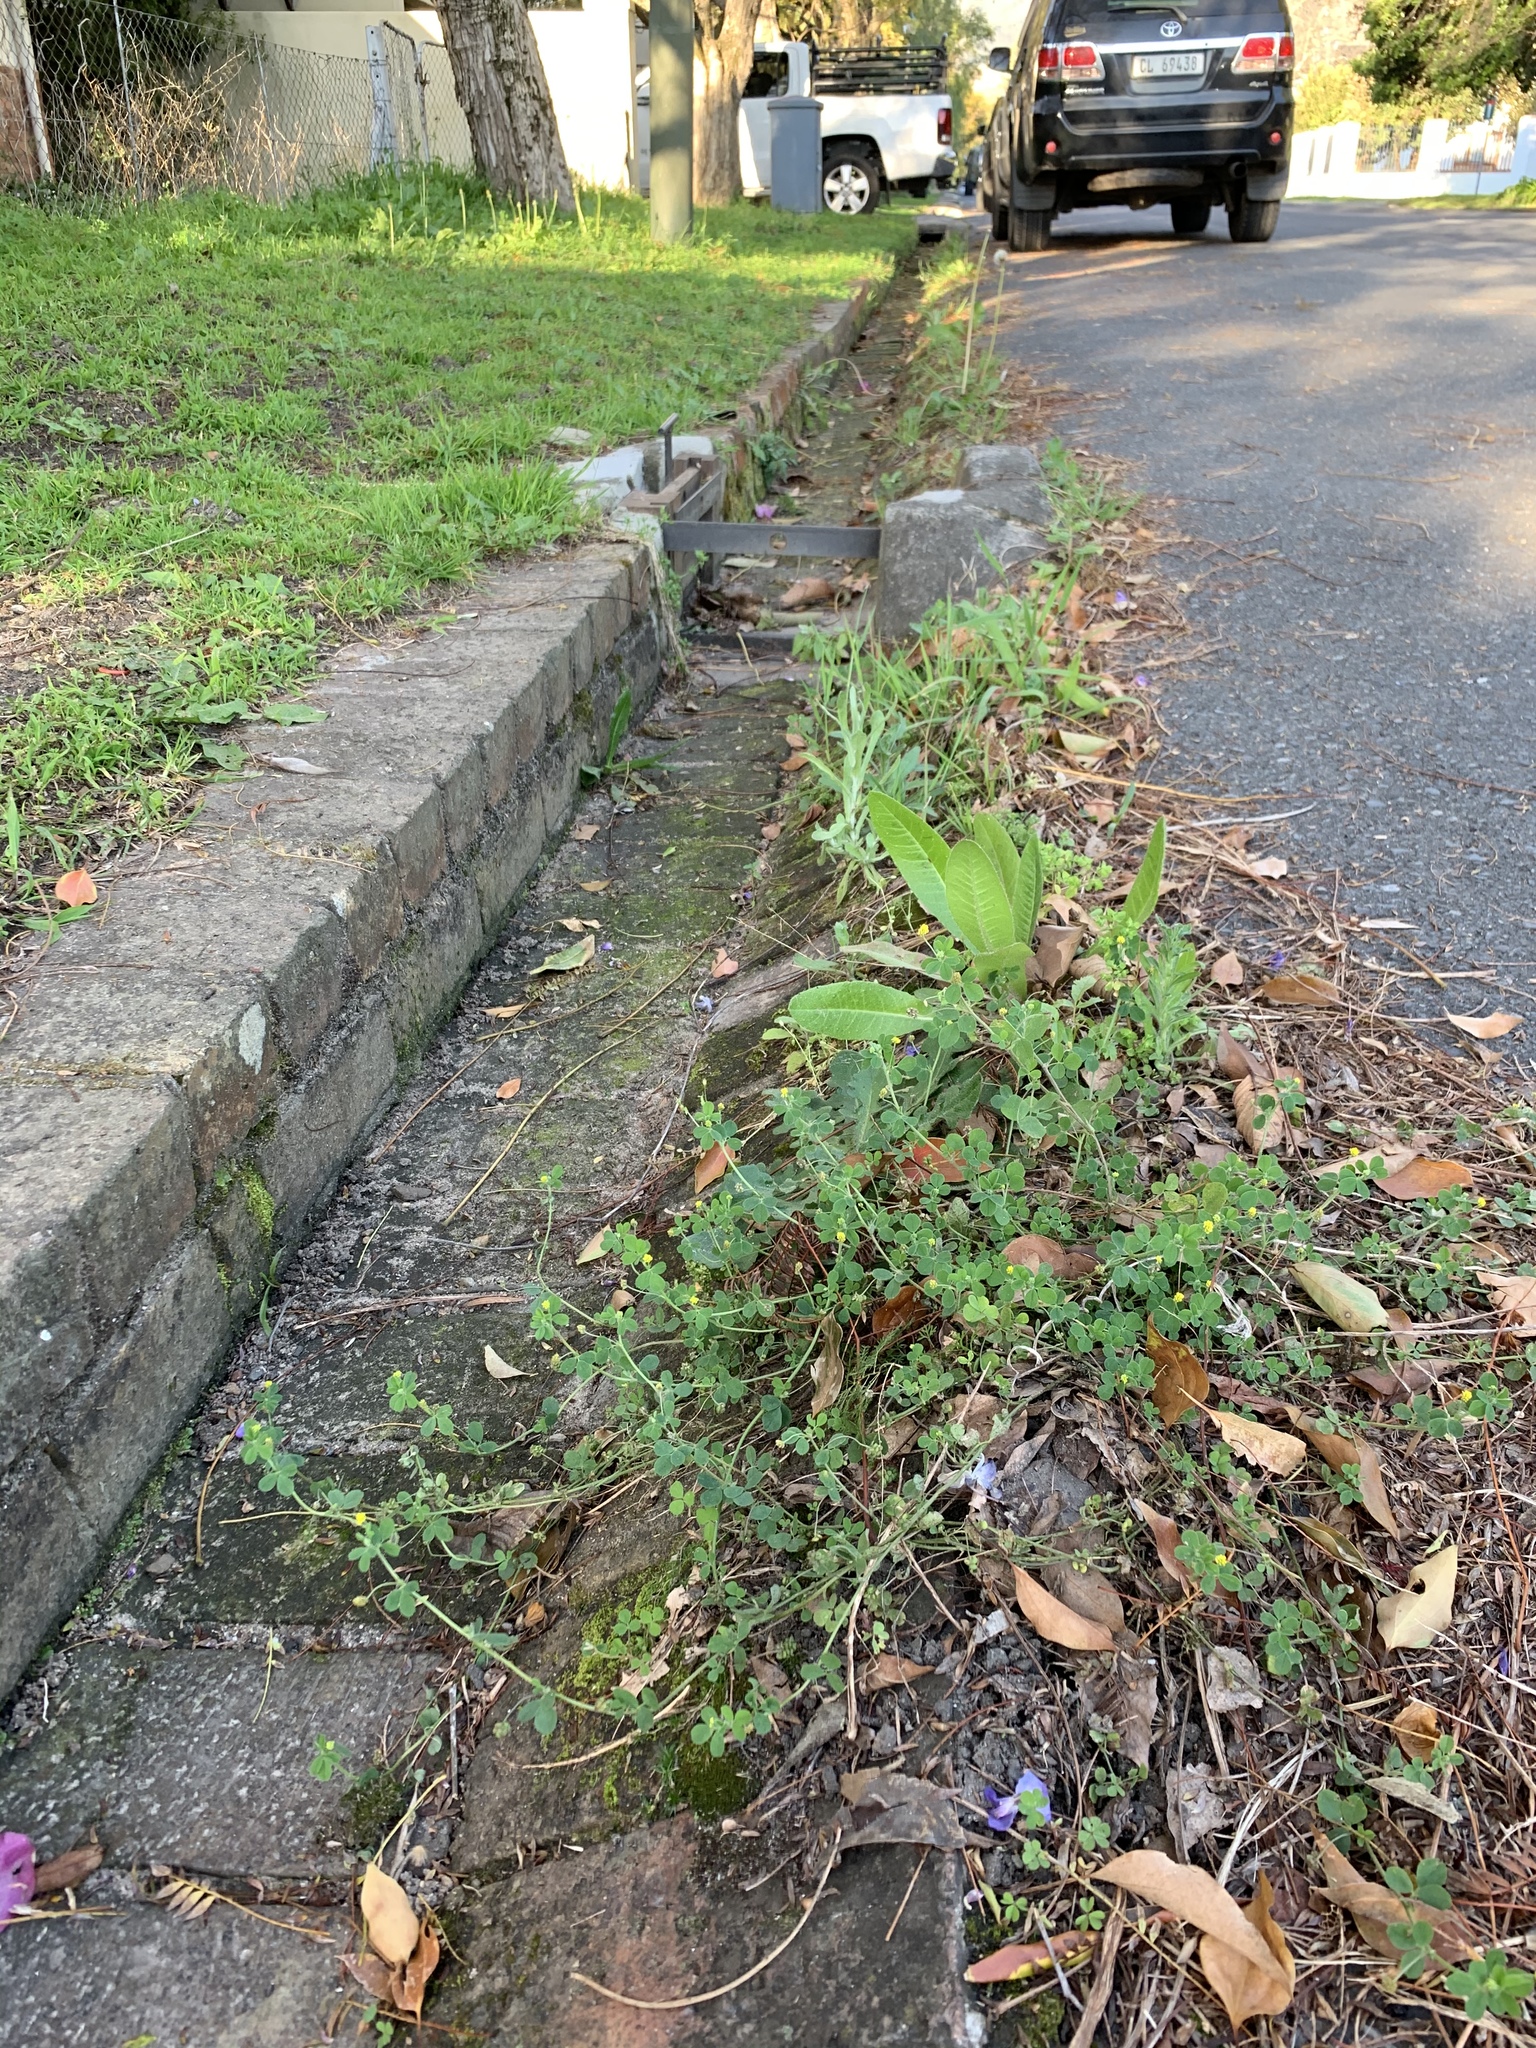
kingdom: Plantae
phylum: Tracheophyta
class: Magnoliopsida
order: Fabales
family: Fabaceae
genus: Medicago
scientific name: Medicago polymorpha
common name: Burclover
